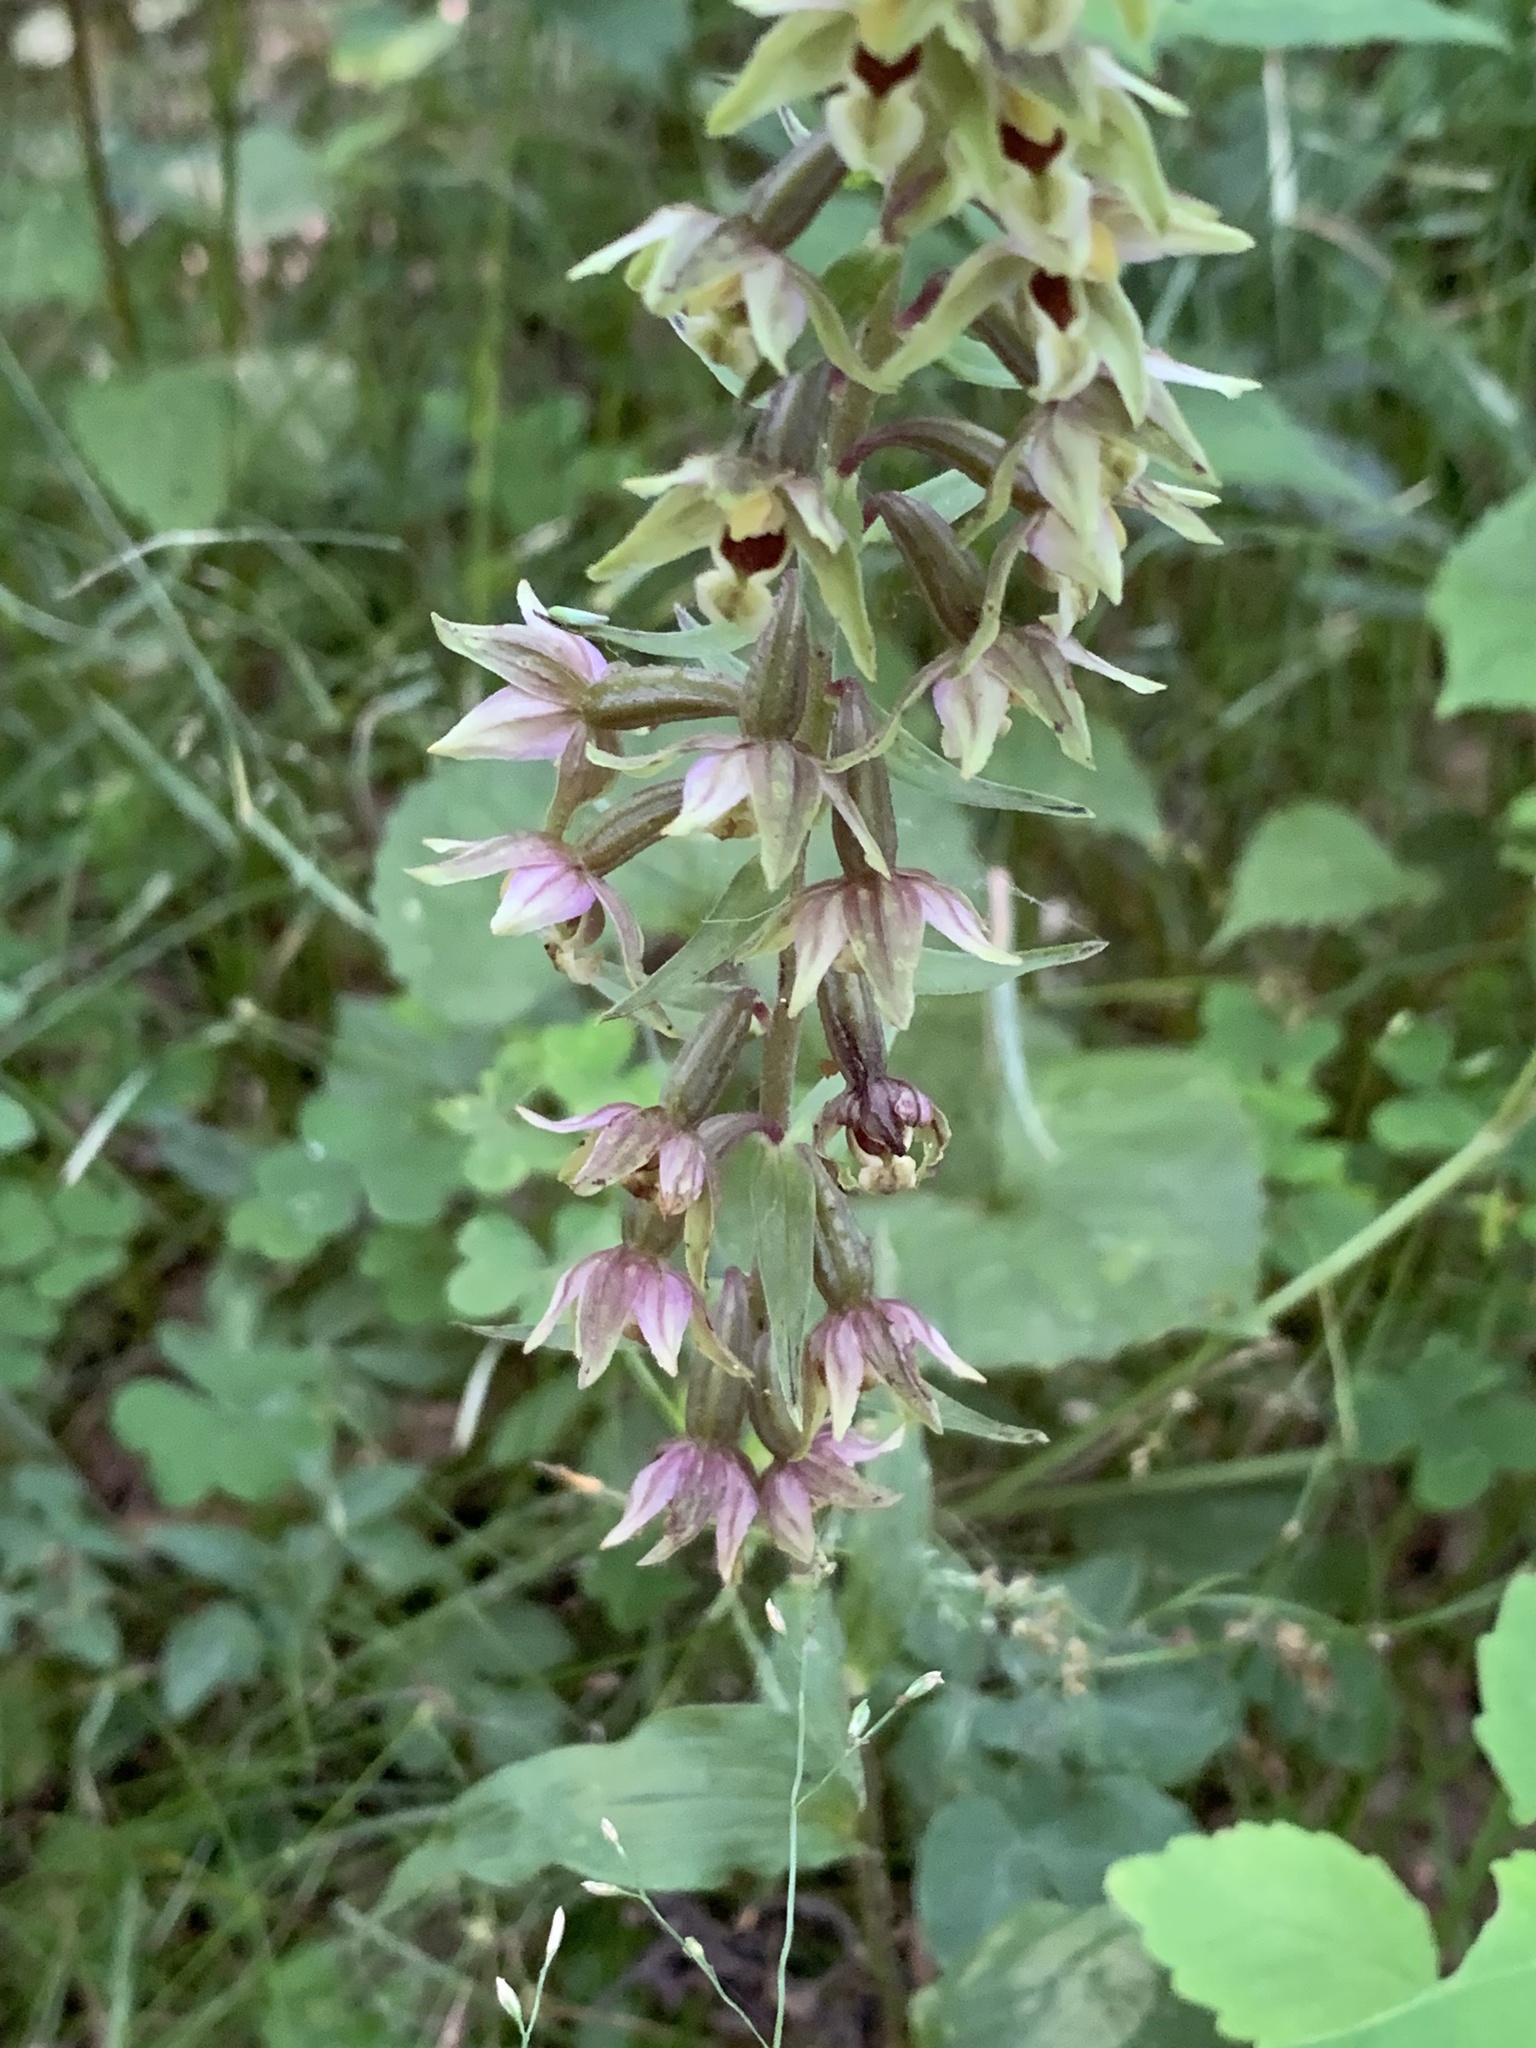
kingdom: Plantae
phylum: Tracheophyta
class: Liliopsida
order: Asparagales
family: Orchidaceae
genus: Epipactis
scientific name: Epipactis helleborine
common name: Broad-leaved helleborine
